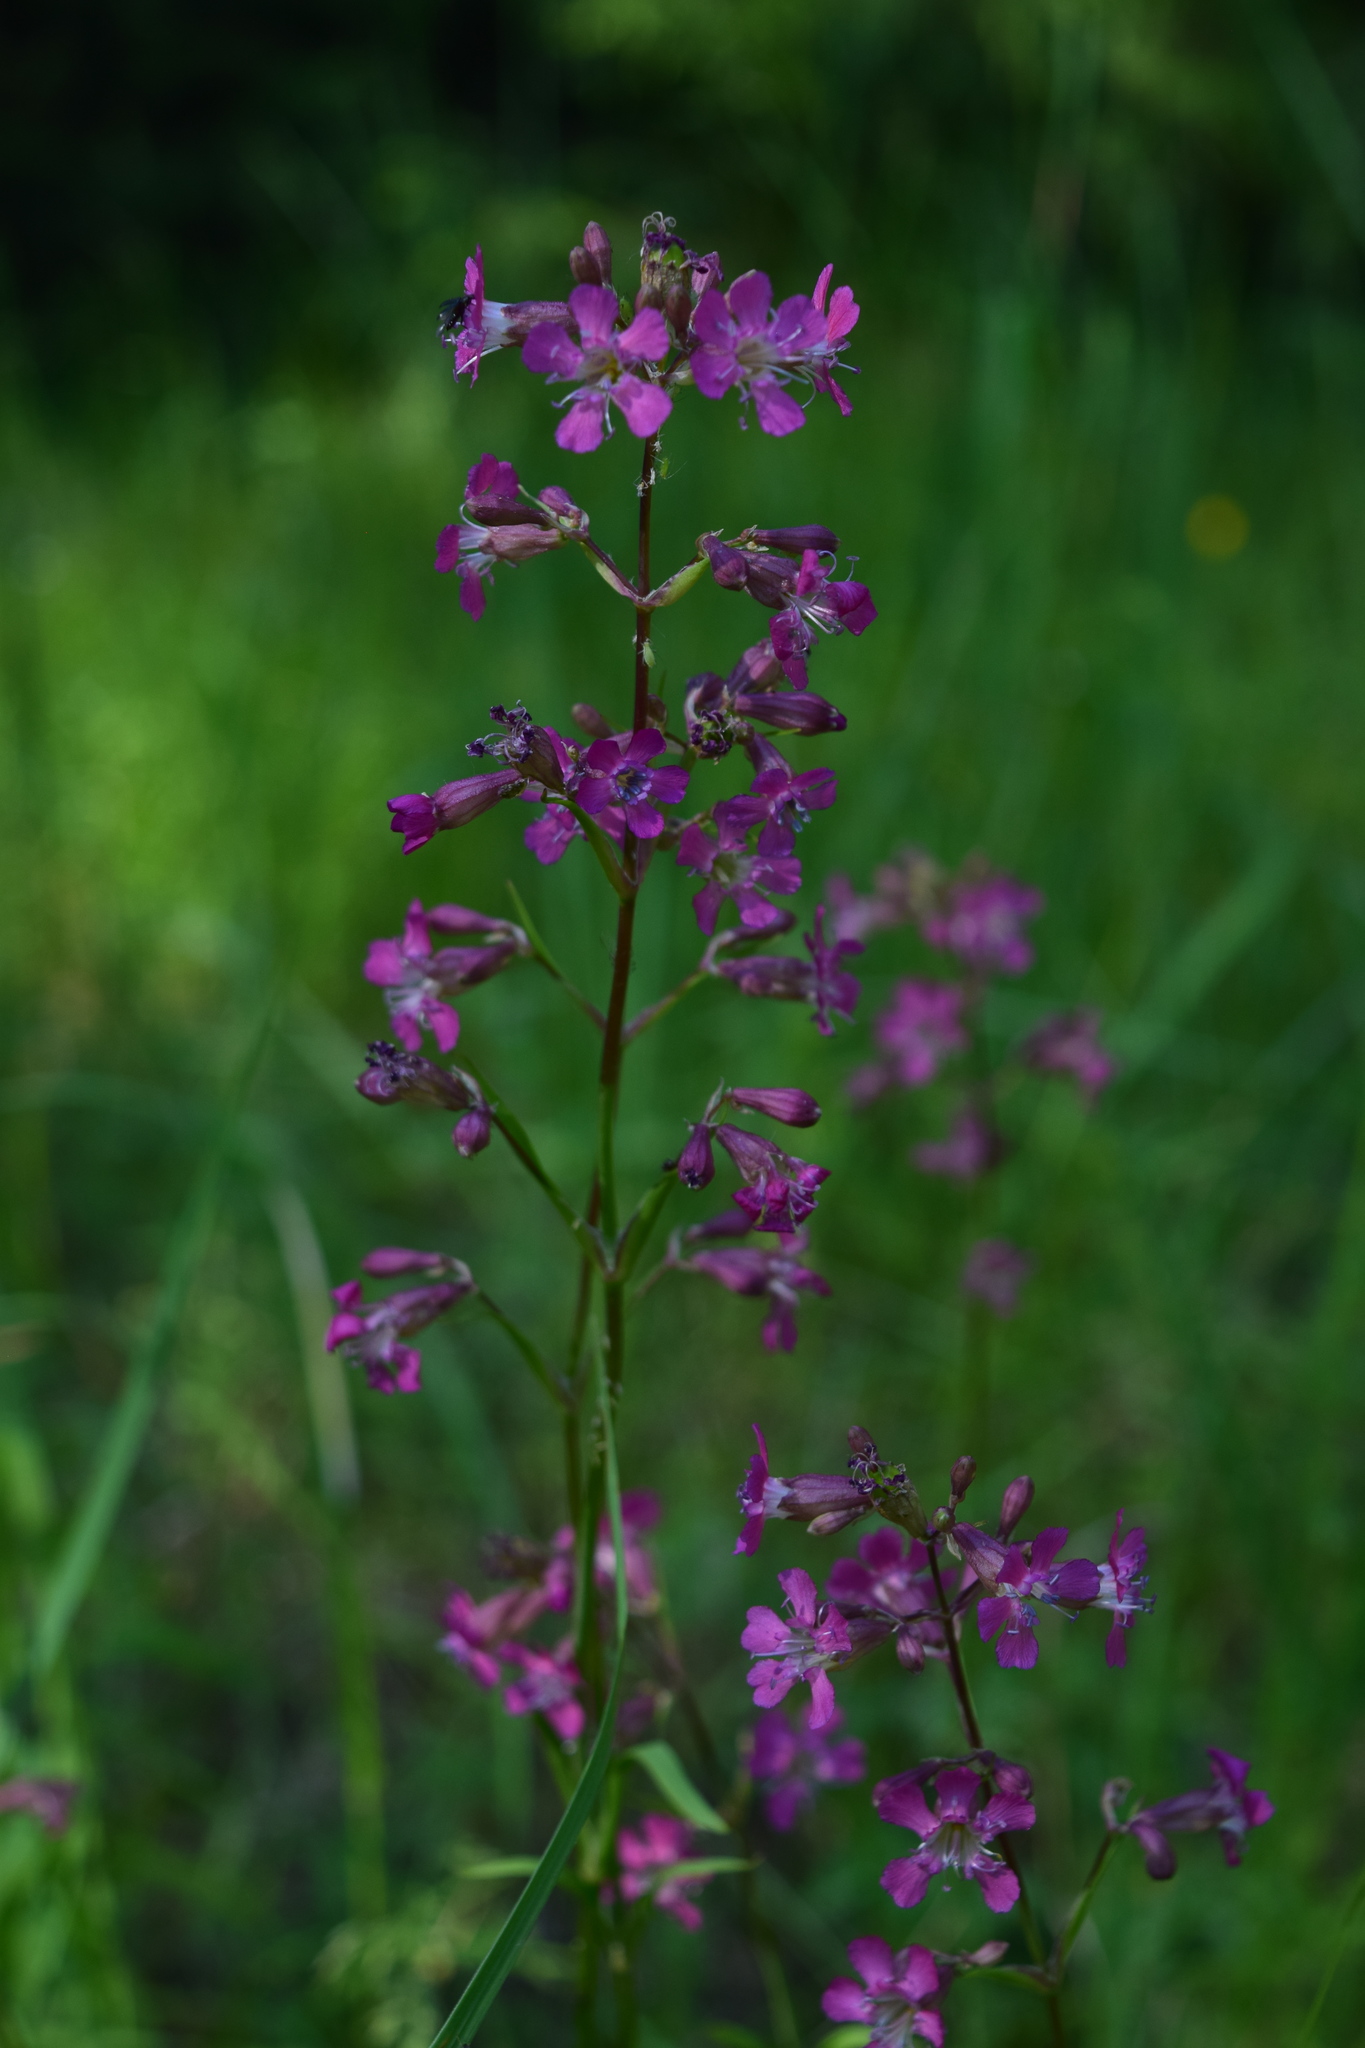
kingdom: Plantae
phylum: Tracheophyta
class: Magnoliopsida
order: Caryophyllales
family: Caryophyllaceae
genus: Viscaria
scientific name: Viscaria vulgaris
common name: Clammy campion
